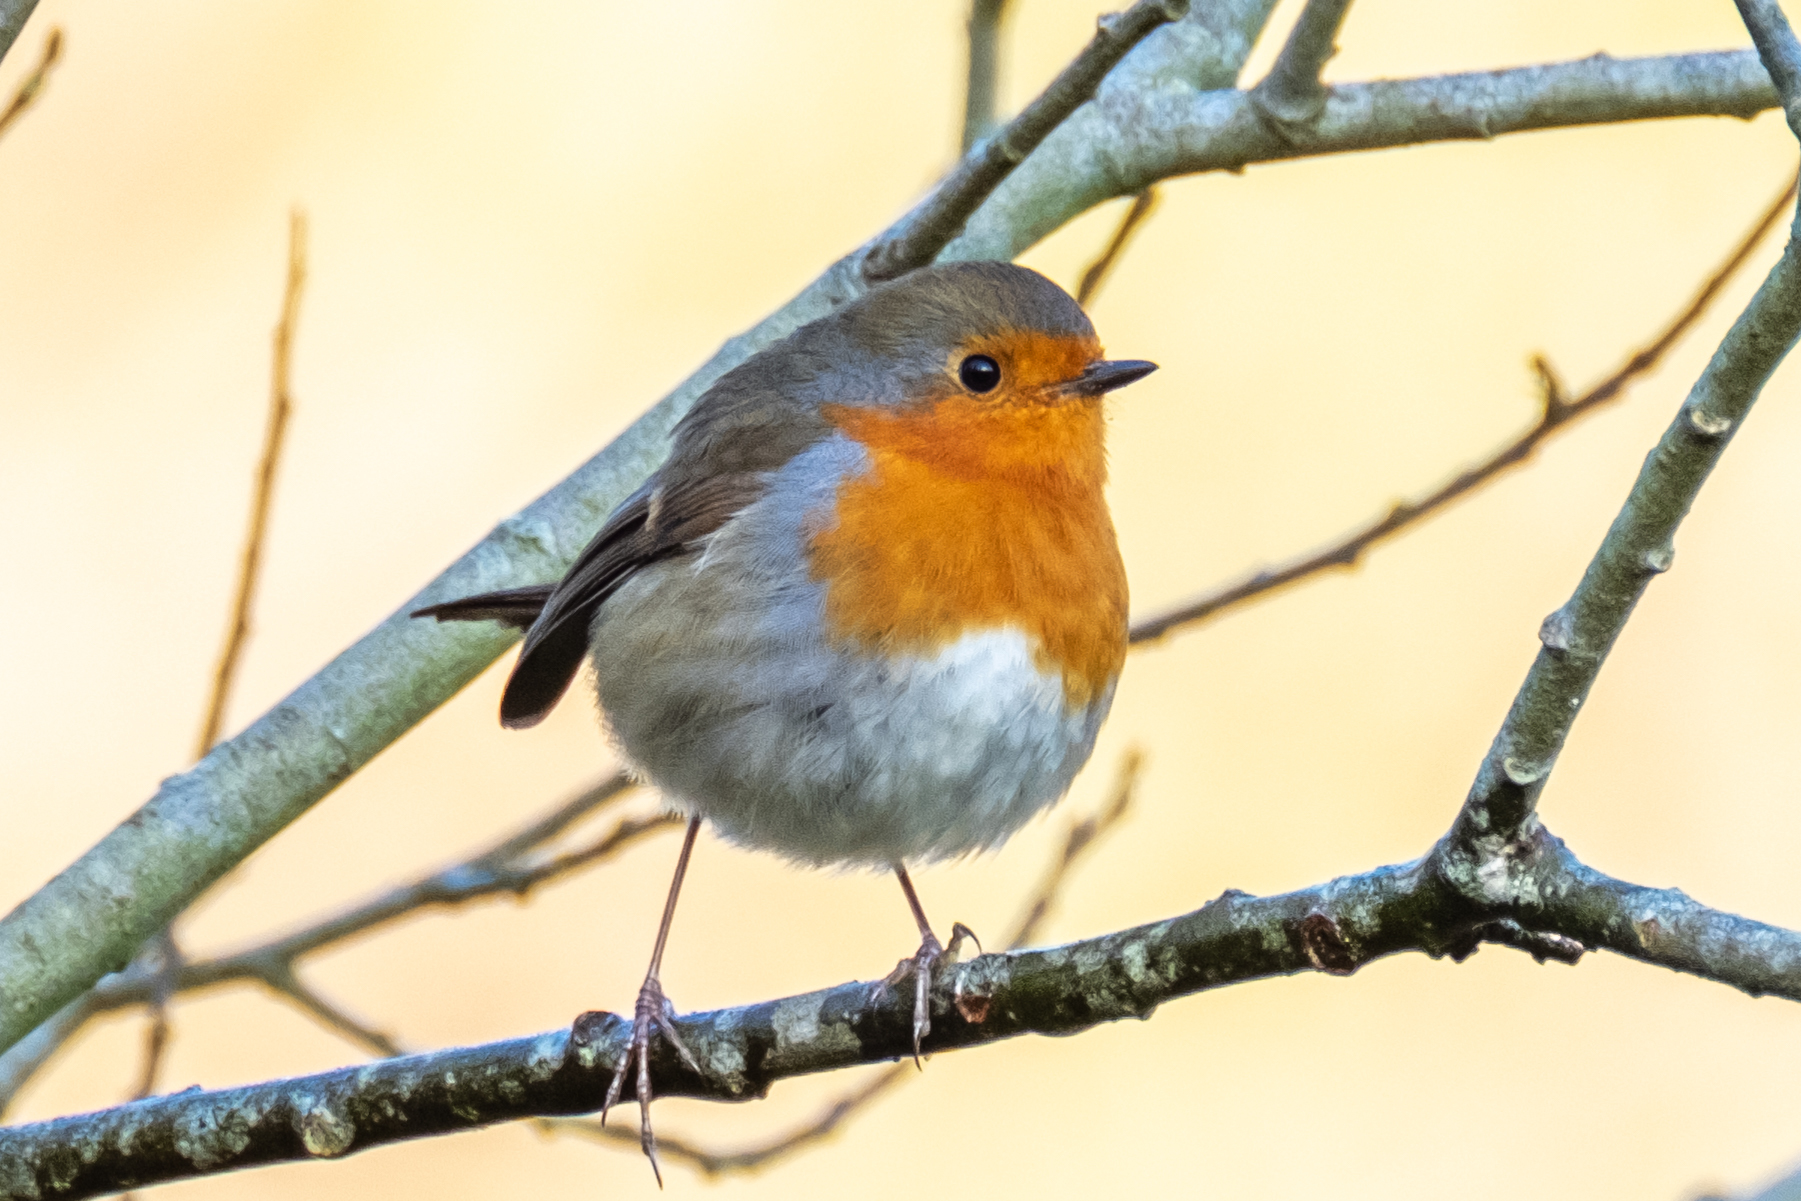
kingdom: Animalia
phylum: Chordata
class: Aves
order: Passeriformes
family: Muscicapidae
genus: Erithacus
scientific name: Erithacus rubecula
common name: European robin
